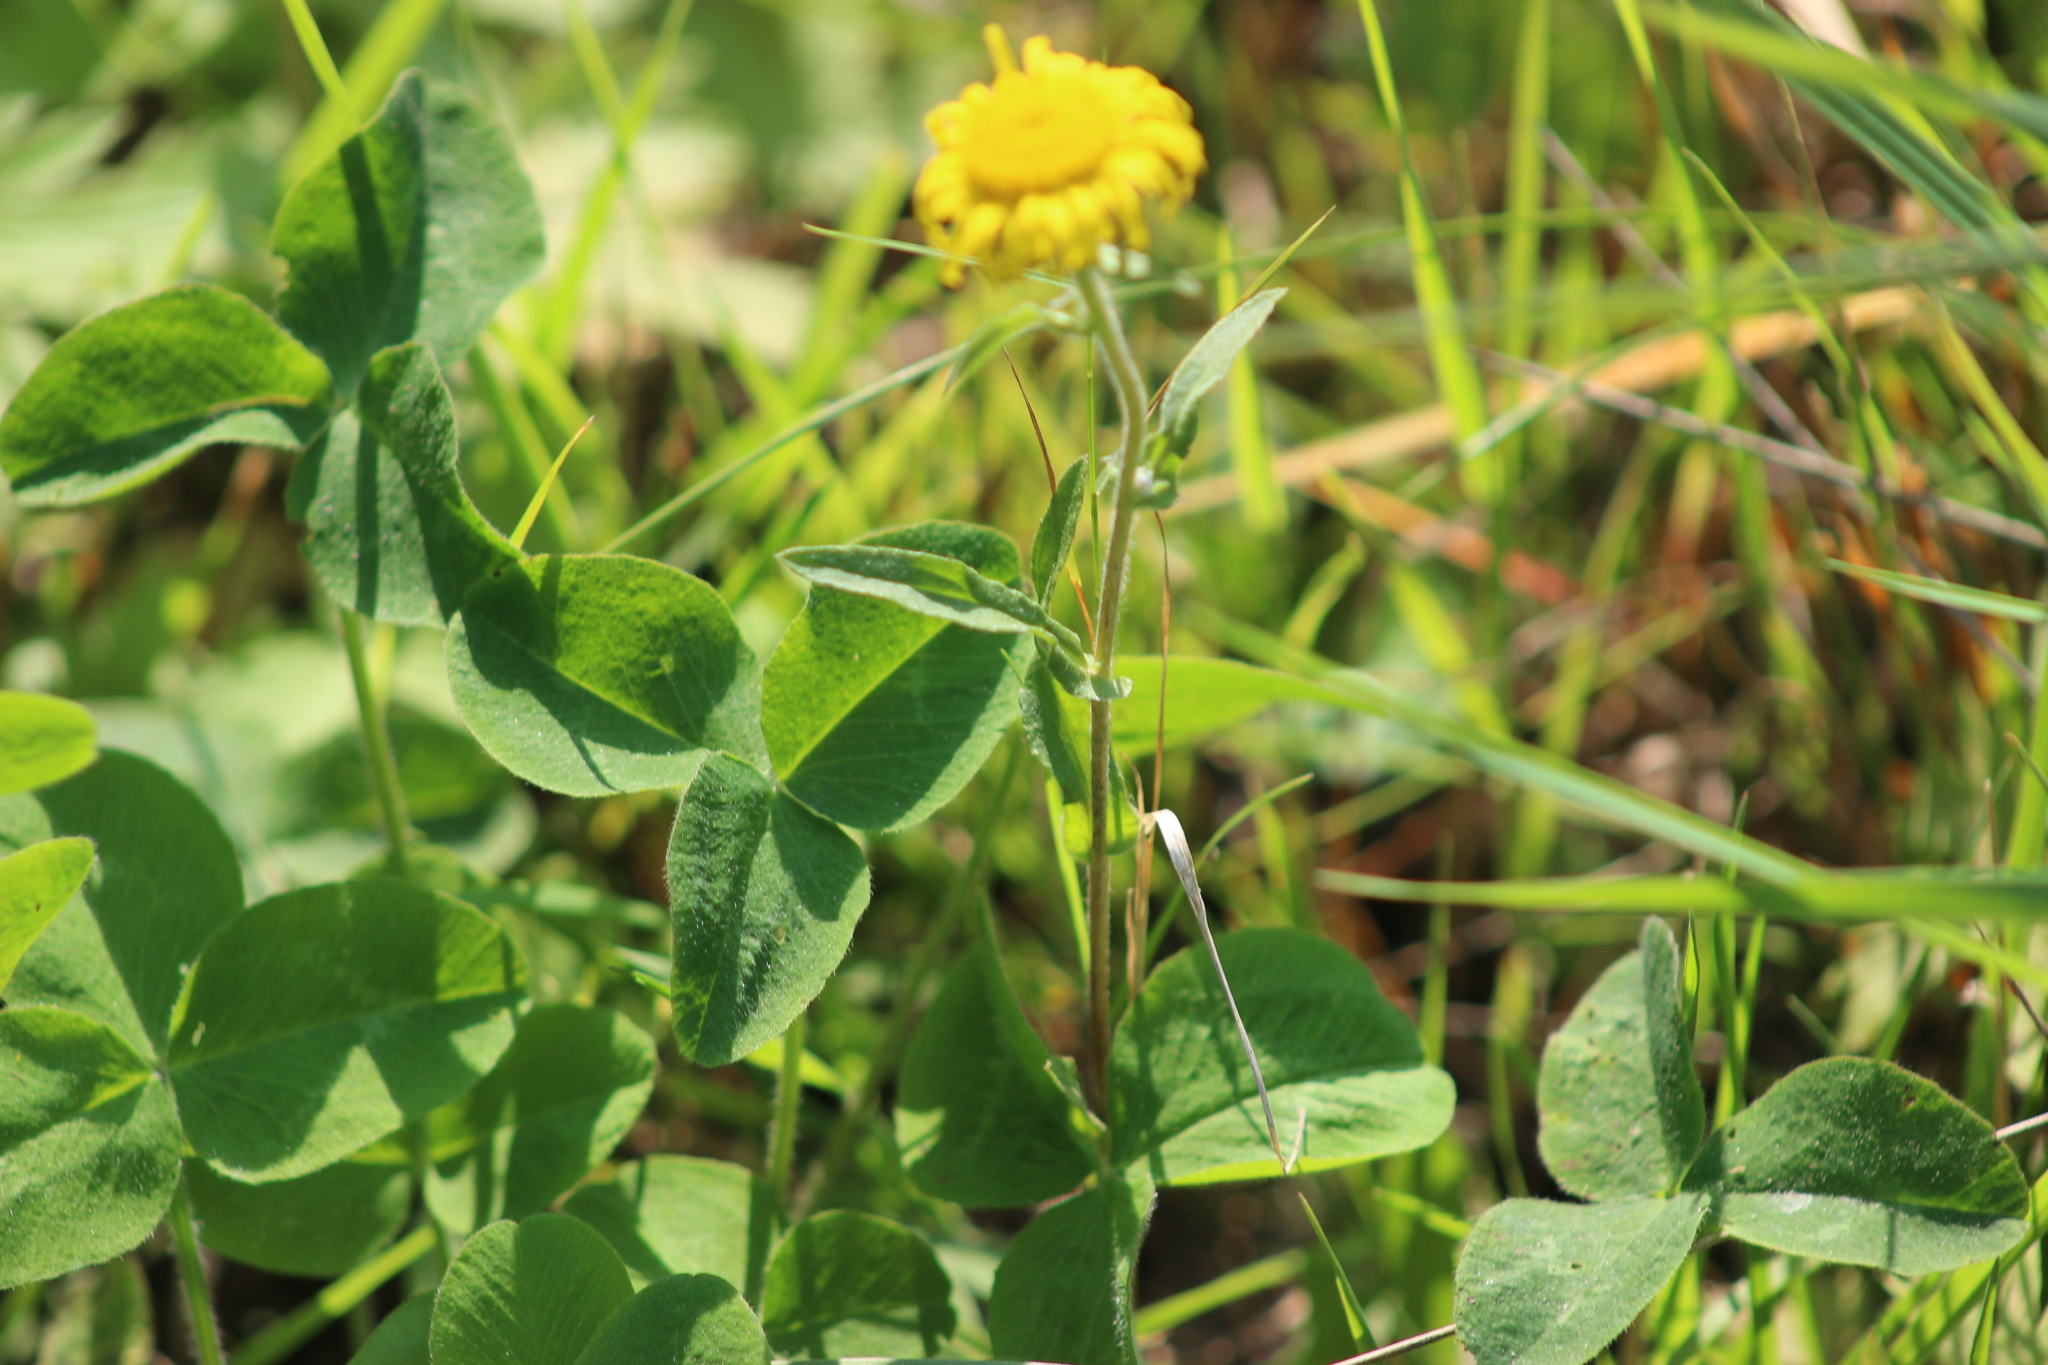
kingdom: Plantae
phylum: Tracheophyta
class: Magnoliopsida
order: Asterales
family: Asteraceae
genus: Pentanema
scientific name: Pentanema britannicum
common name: British elecampane
